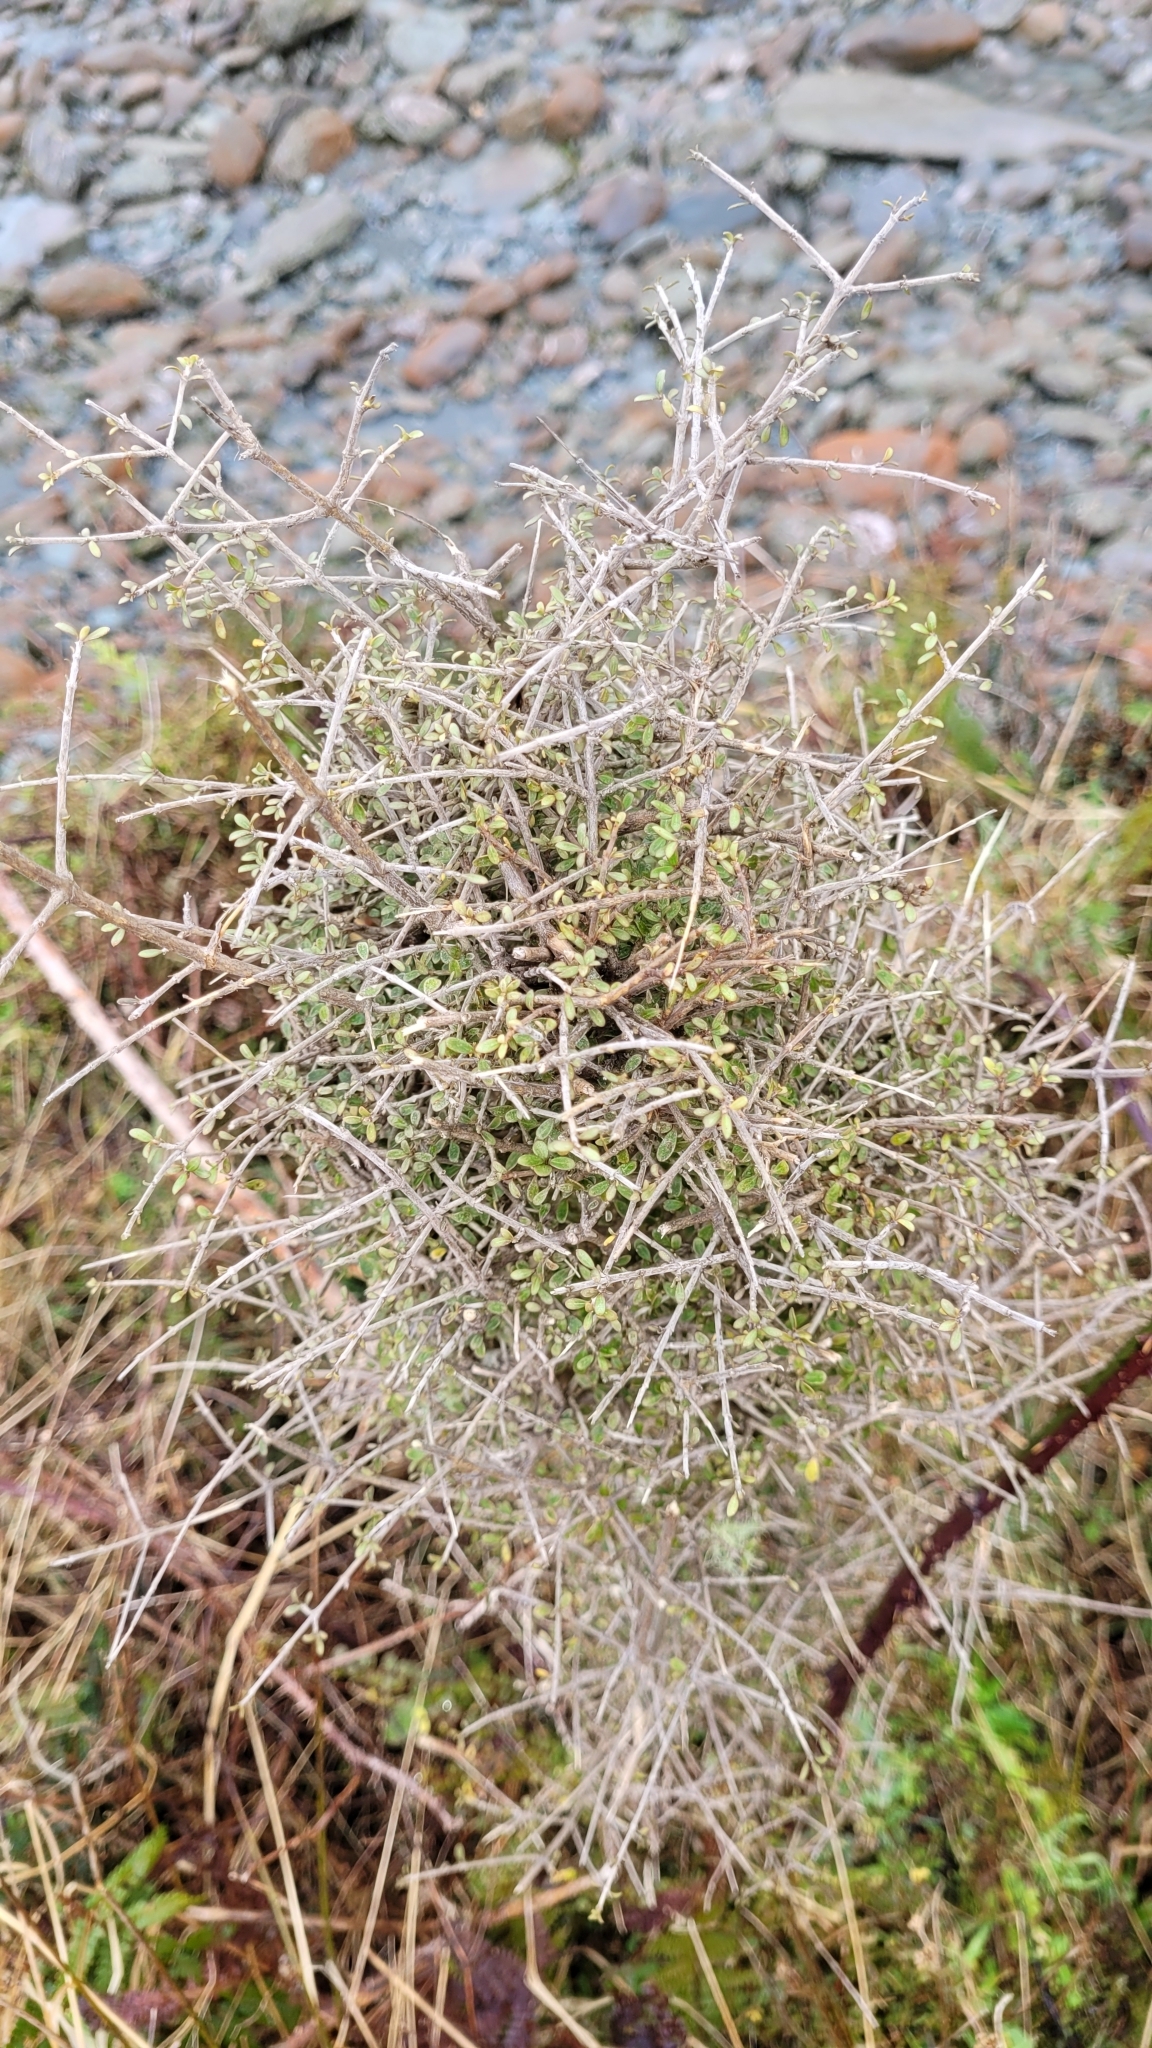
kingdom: Plantae
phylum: Tracheophyta
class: Magnoliopsida
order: Gentianales
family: Rubiaceae
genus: Coprosma
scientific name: Coprosma dumosa
